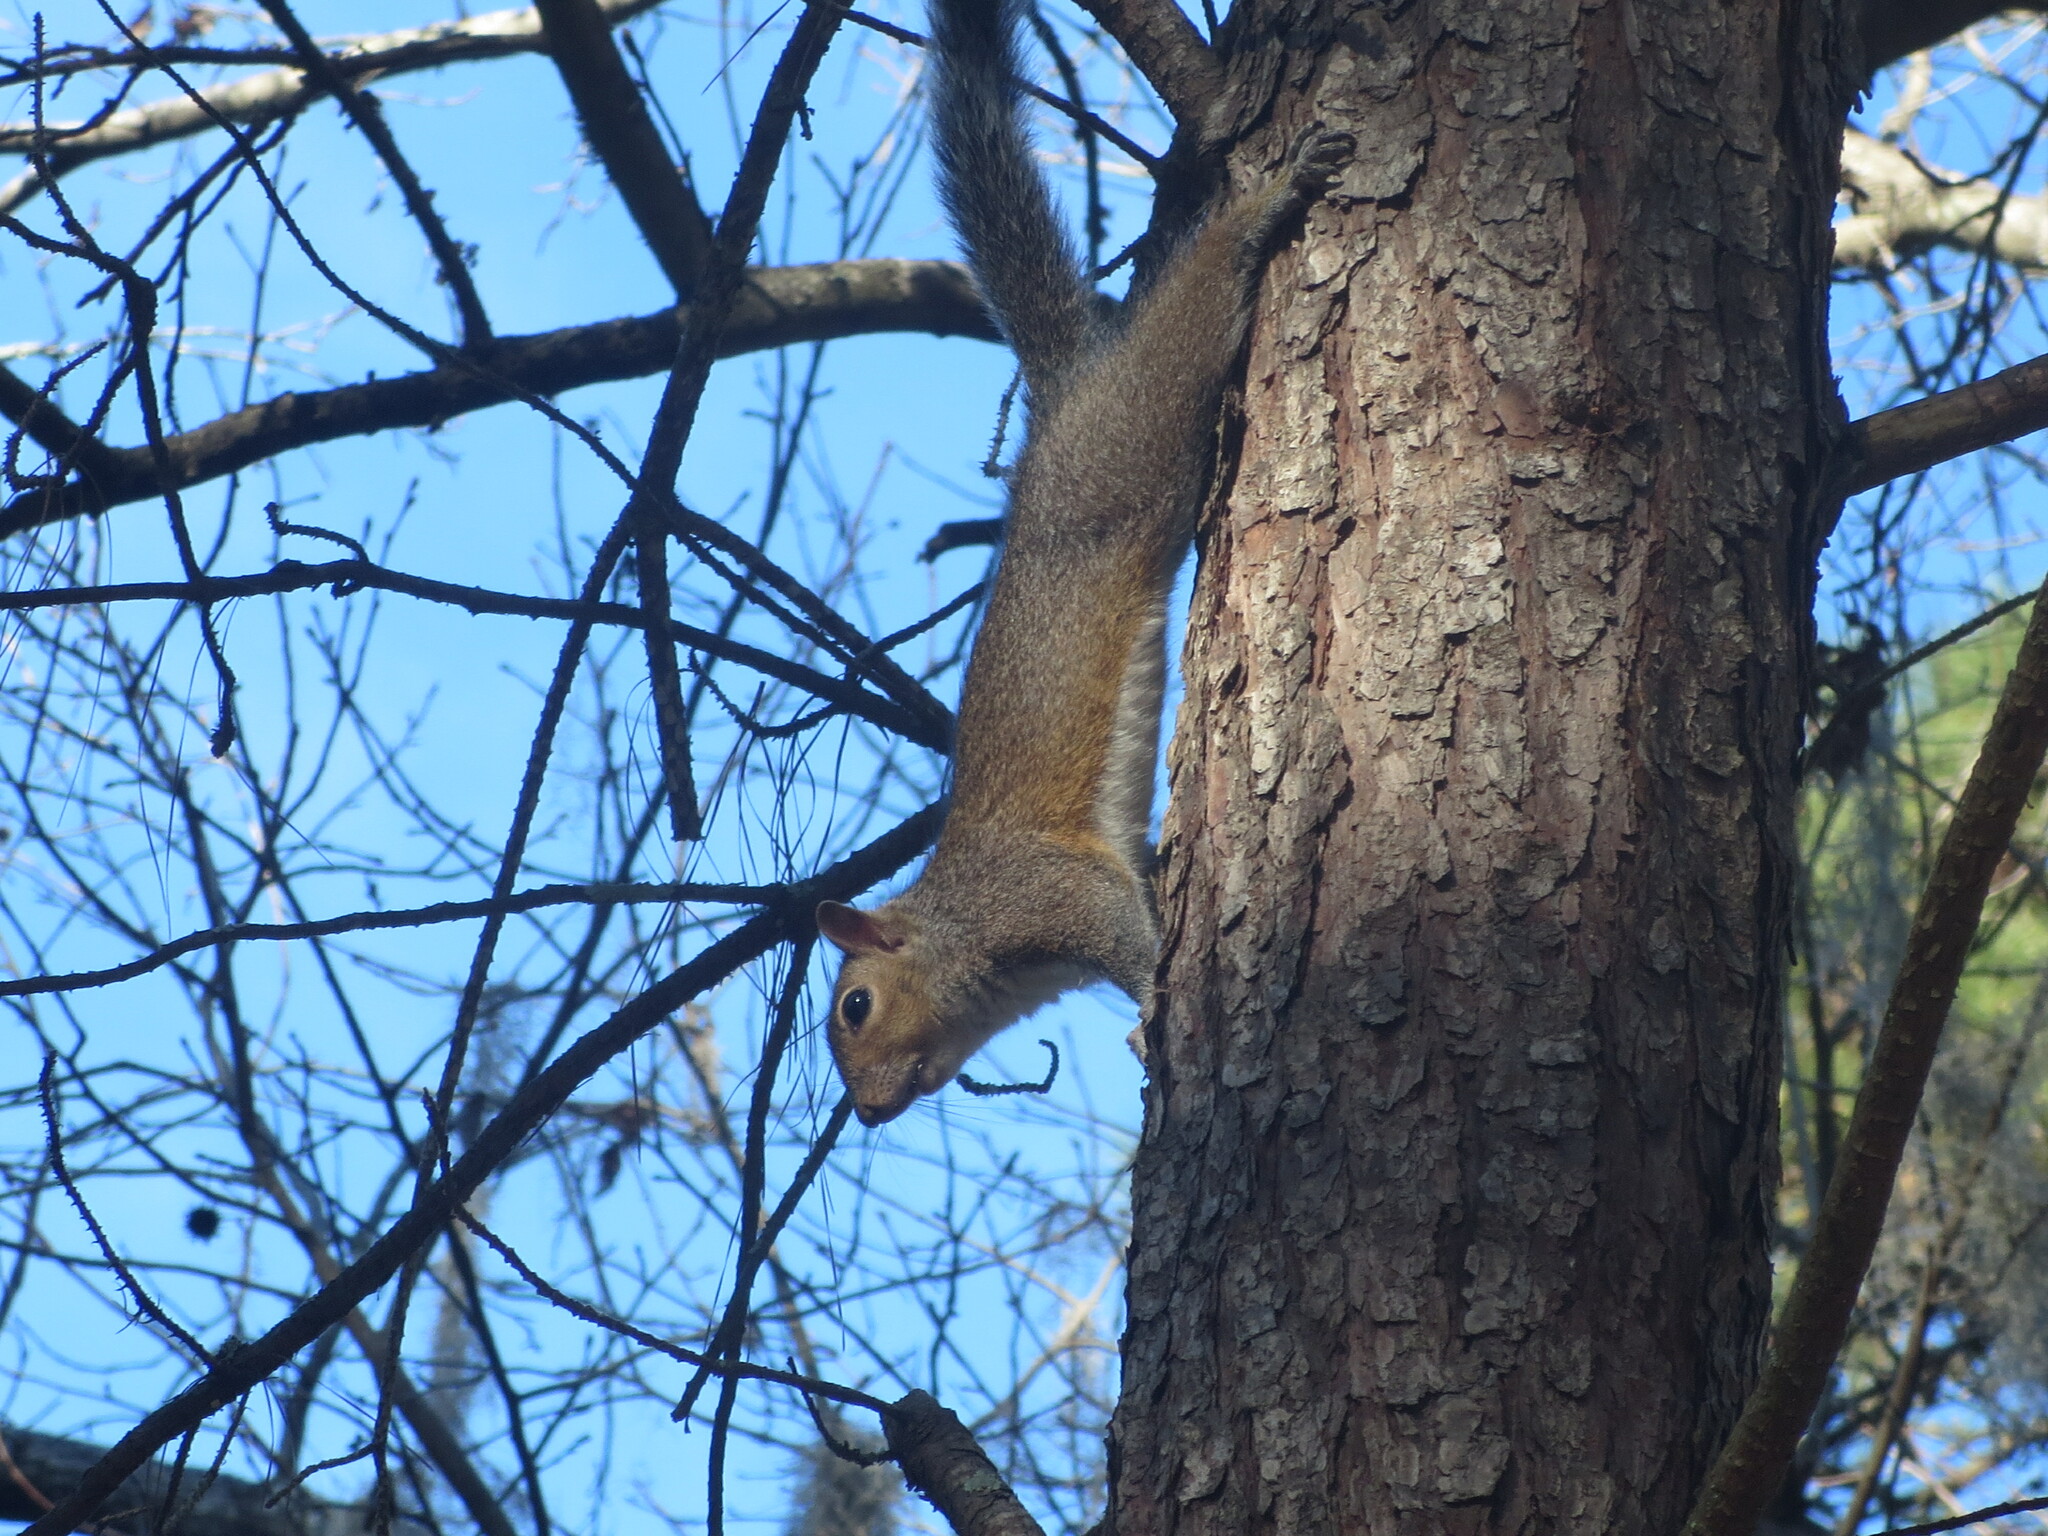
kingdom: Animalia
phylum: Chordata
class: Mammalia
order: Rodentia
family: Sciuridae
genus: Sciurus
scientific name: Sciurus carolinensis
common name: Eastern gray squirrel
